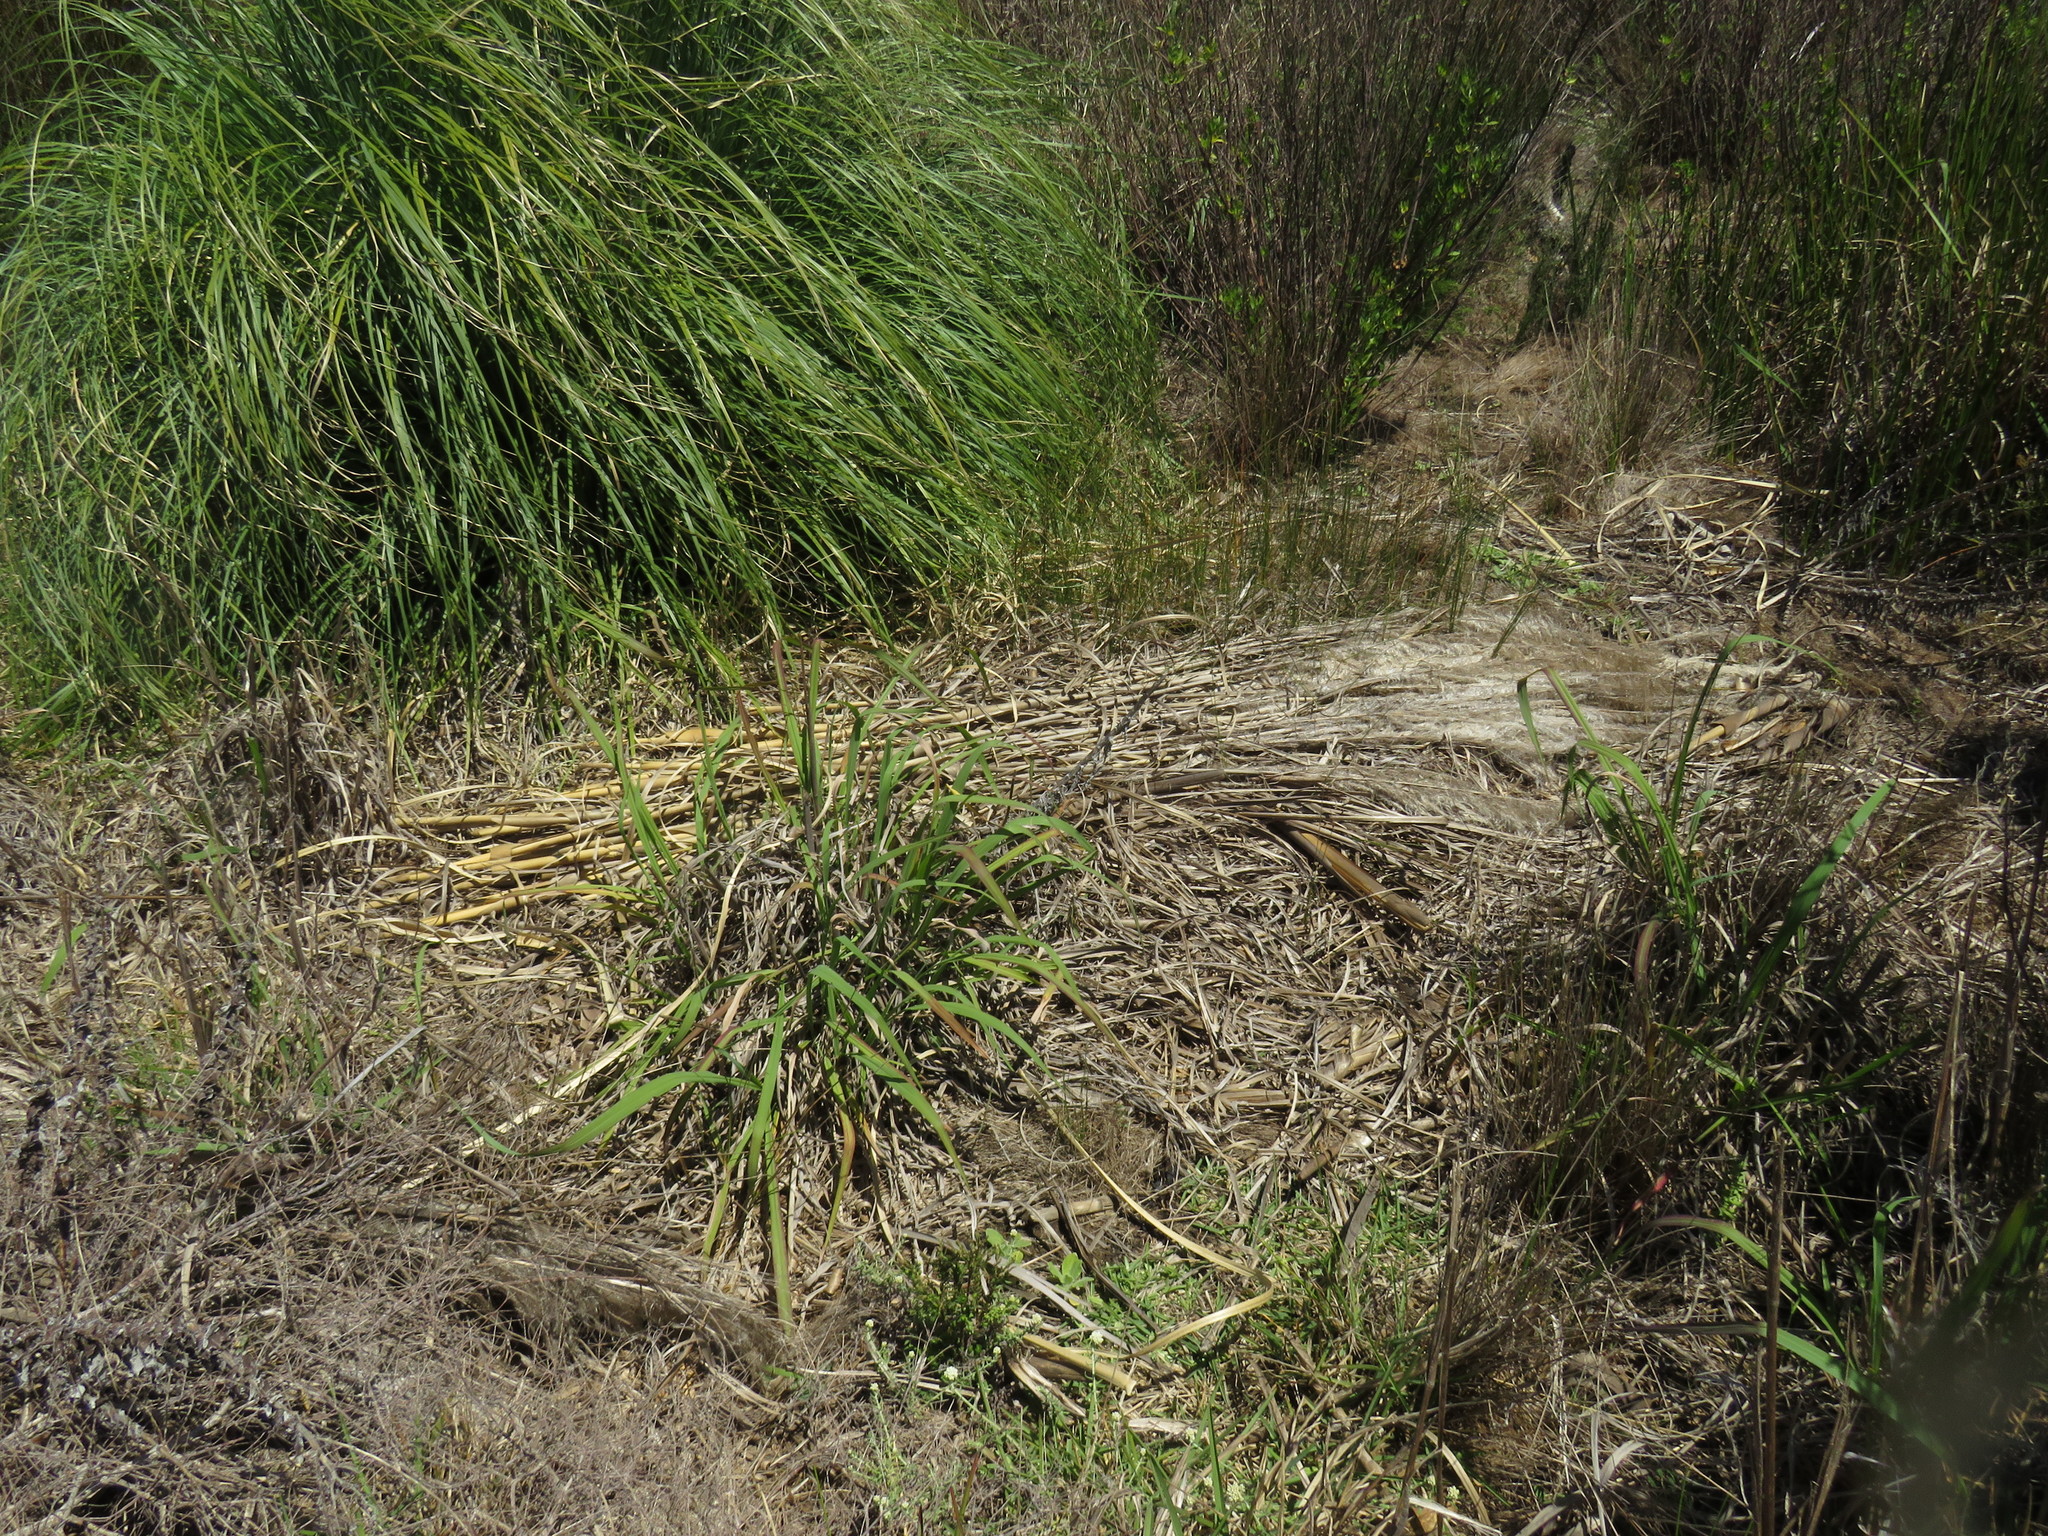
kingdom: Plantae
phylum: Tracheophyta
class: Liliopsida
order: Poales
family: Poaceae
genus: Cortaderia
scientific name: Cortaderia selloana
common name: Uruguayan pampas grass
